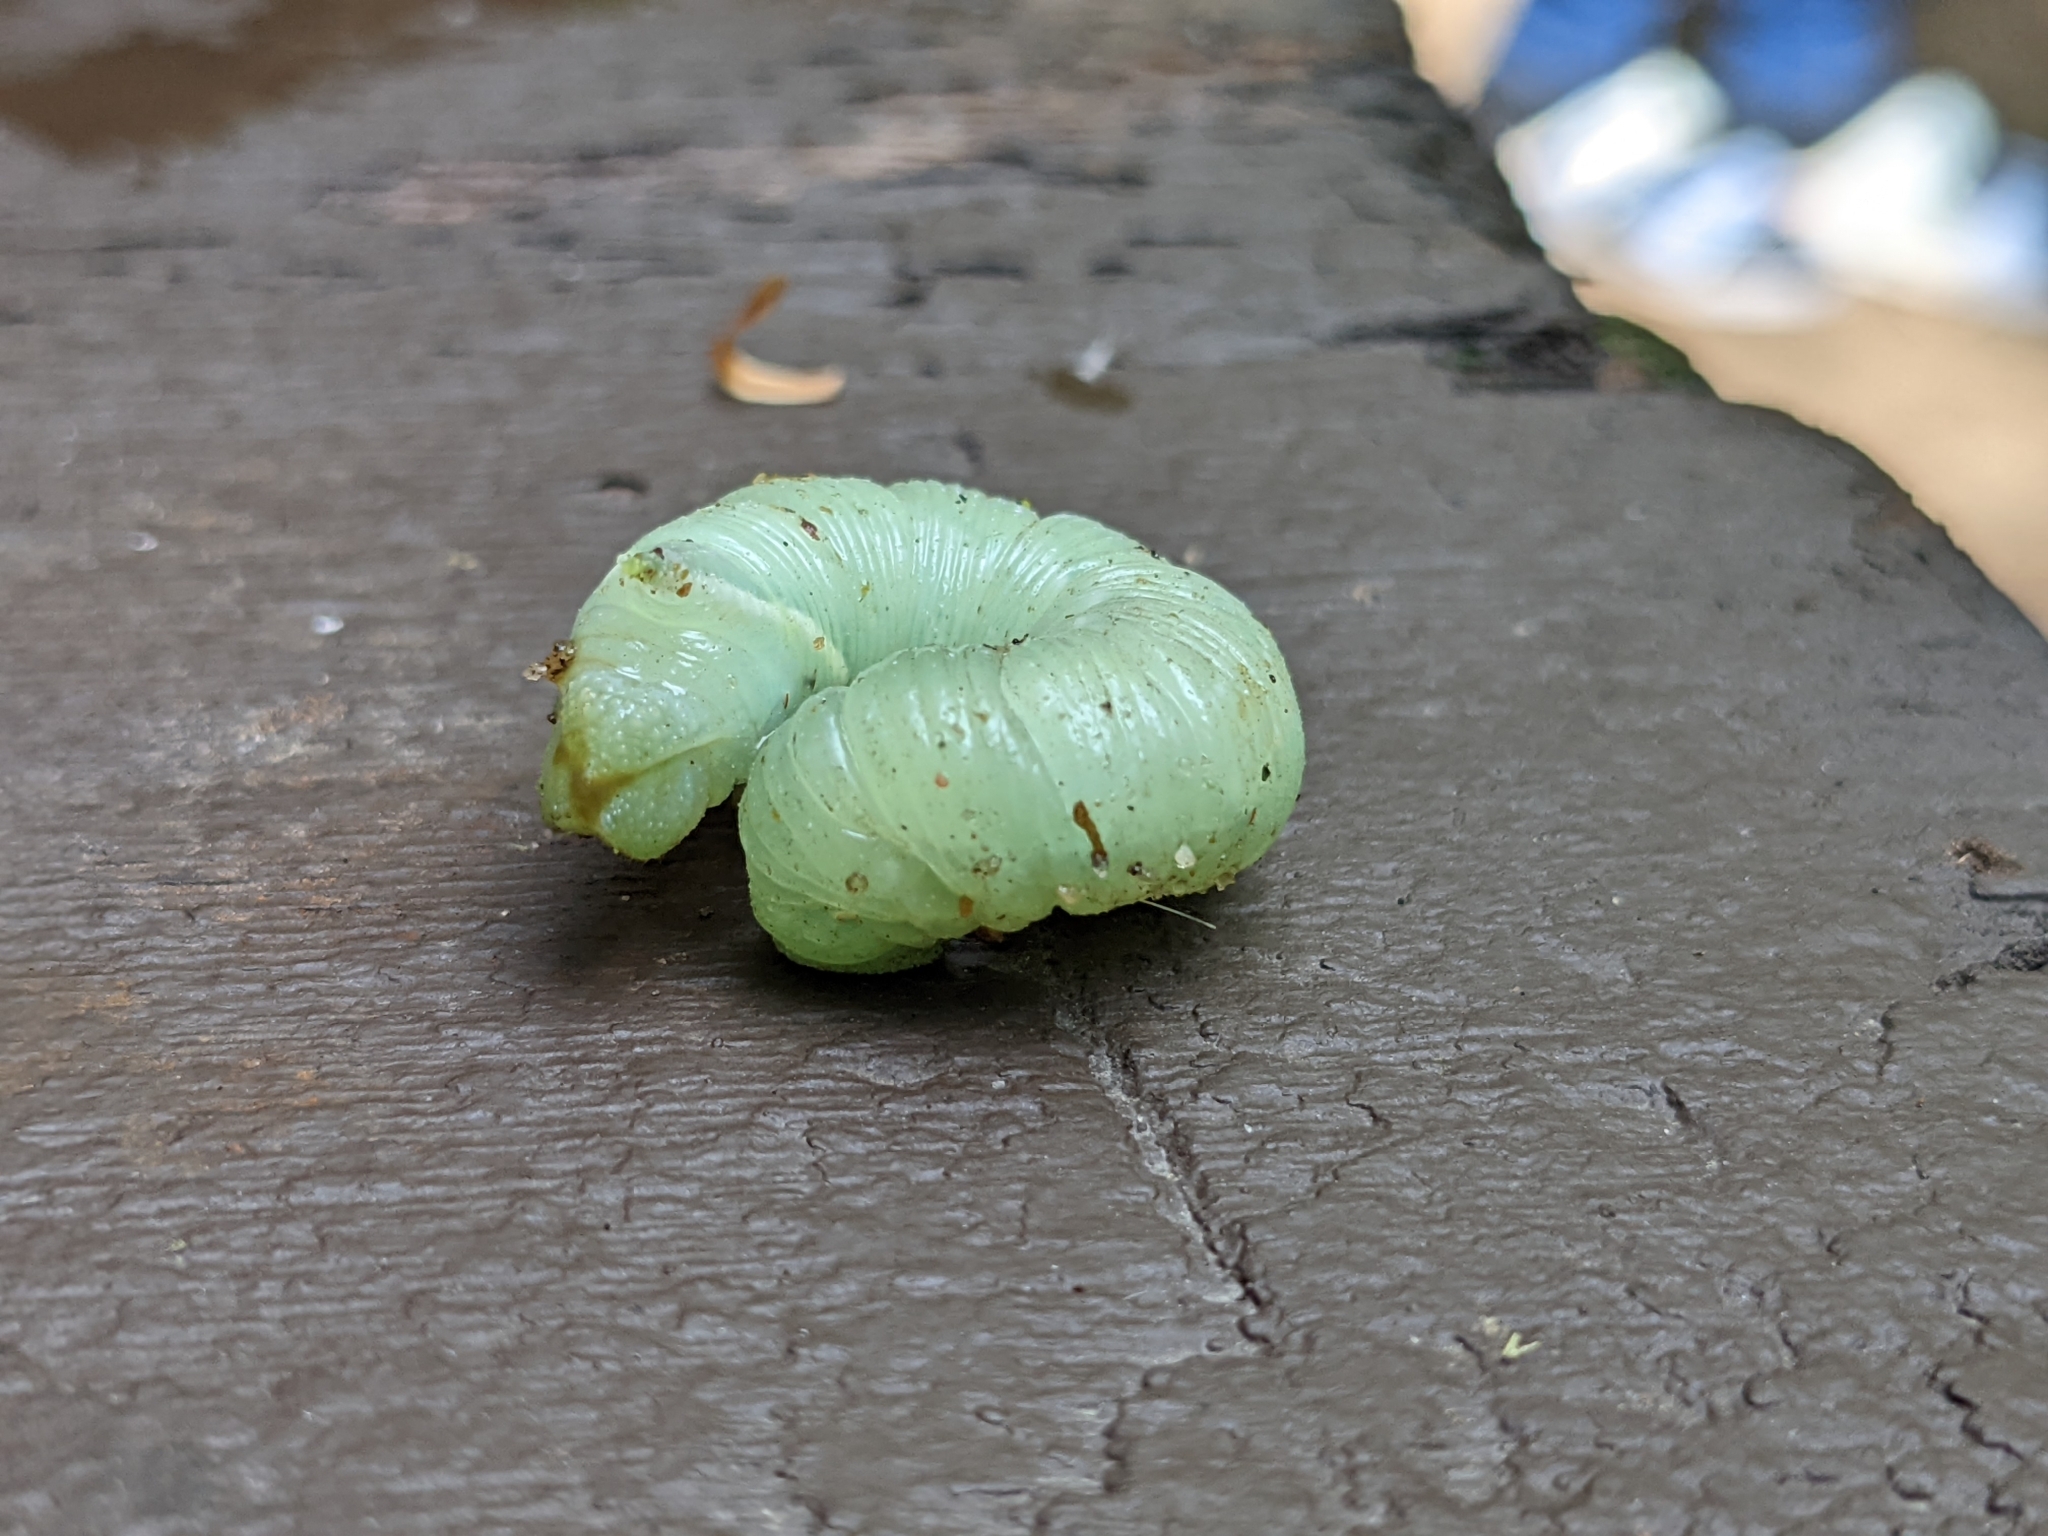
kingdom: Animalia
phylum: Arthropoda
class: Insecta
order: Lepidoptera
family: Sphingidae
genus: Paonias
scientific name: Paonias myops
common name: Small-eyed sphinx
